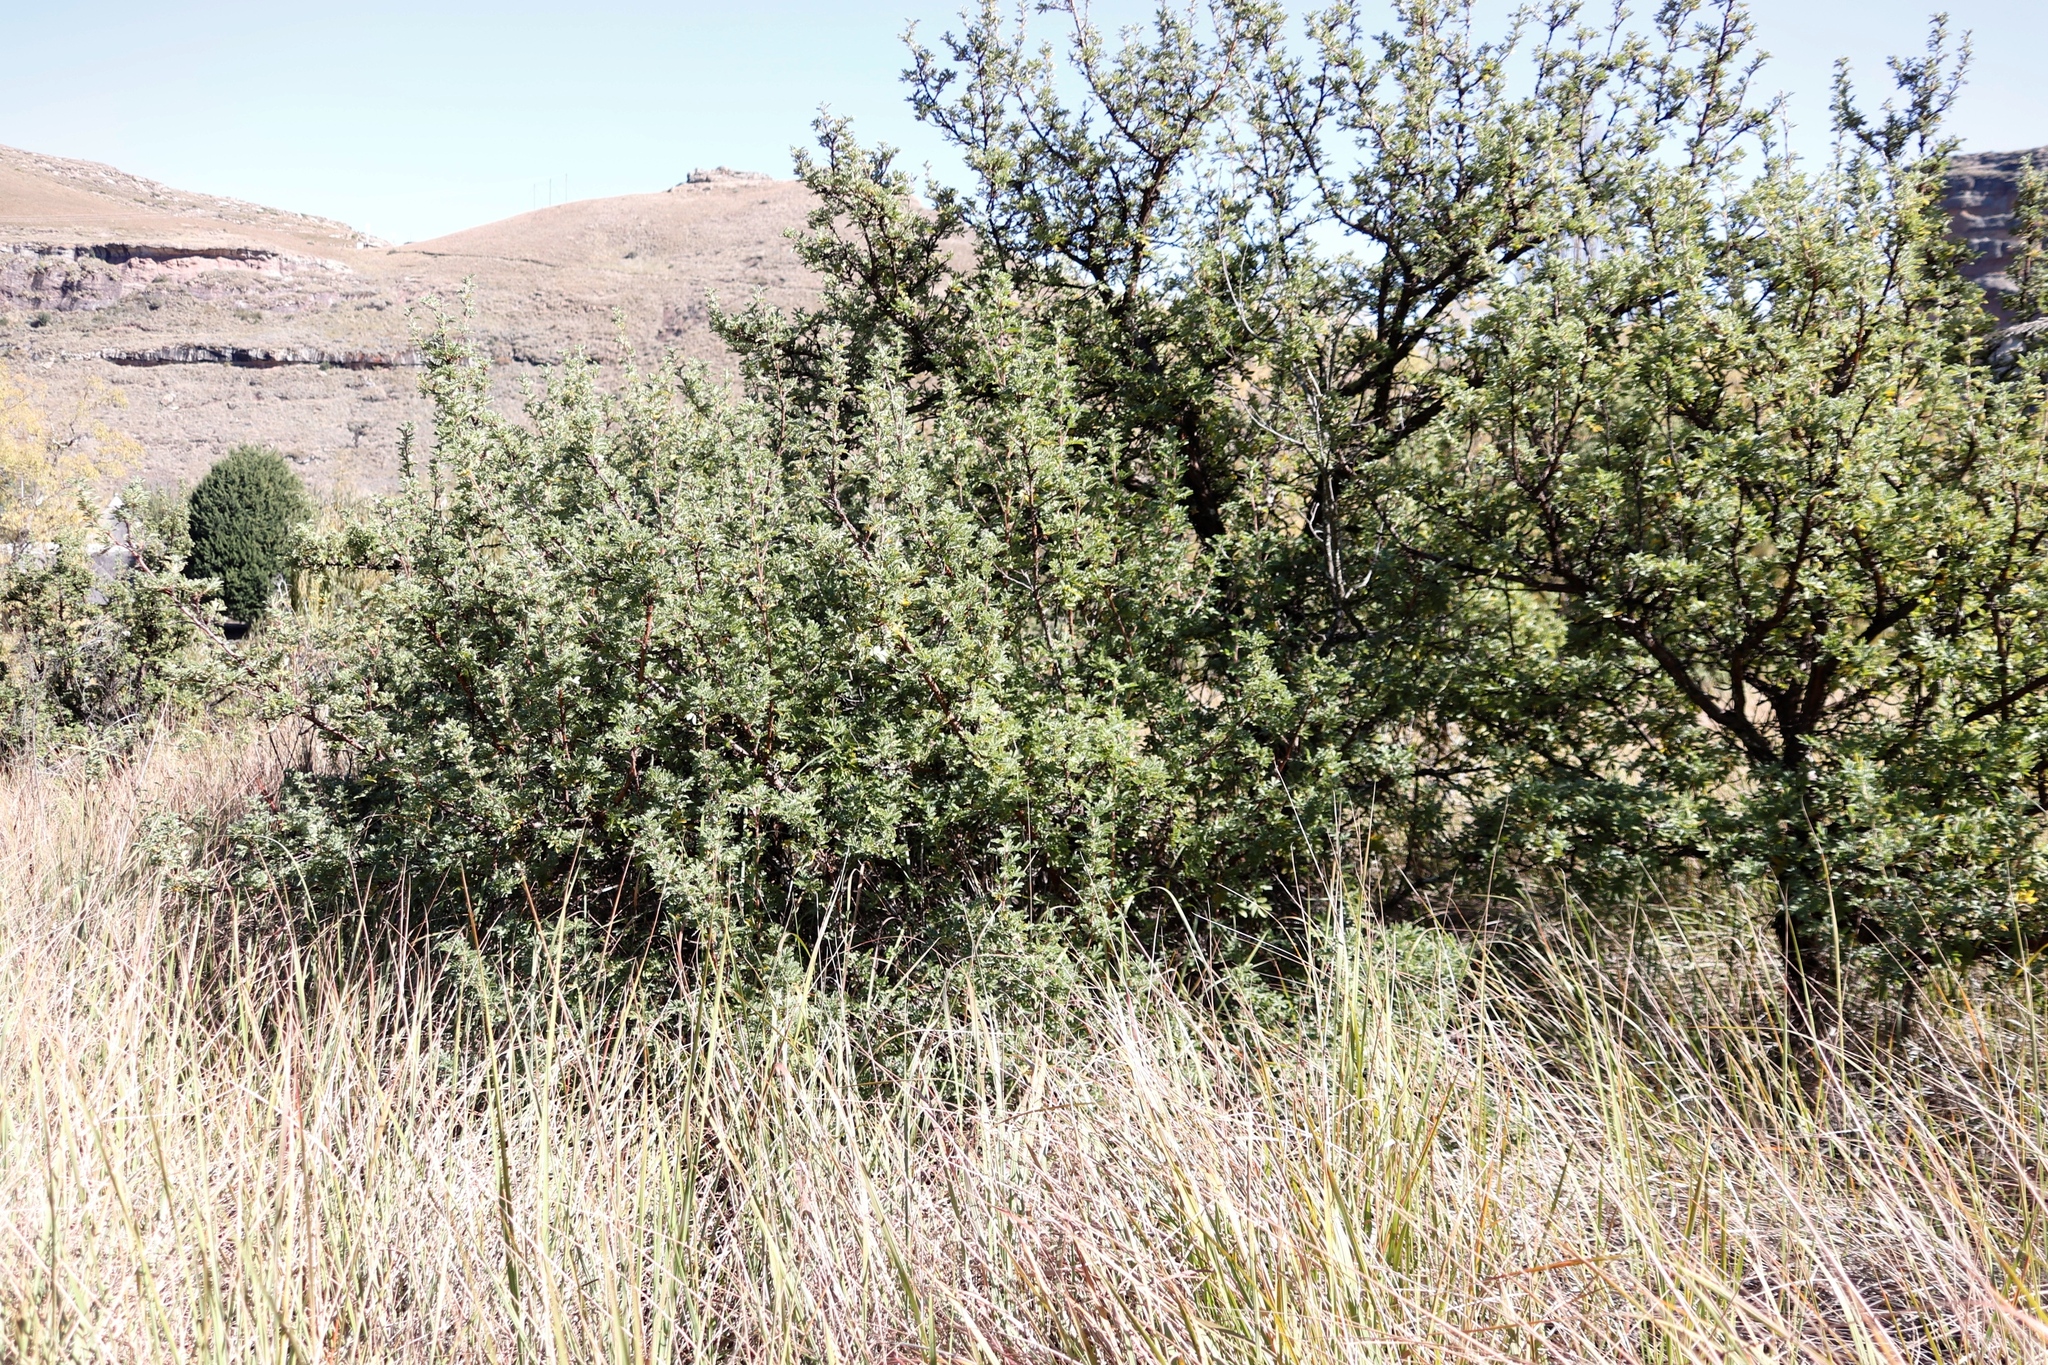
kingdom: Plantae
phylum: Tracheophyta
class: Magnoliopsida
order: Rosales
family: Rosaceae
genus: Leucosidea
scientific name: Leucosidea sericea
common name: Oldwood
